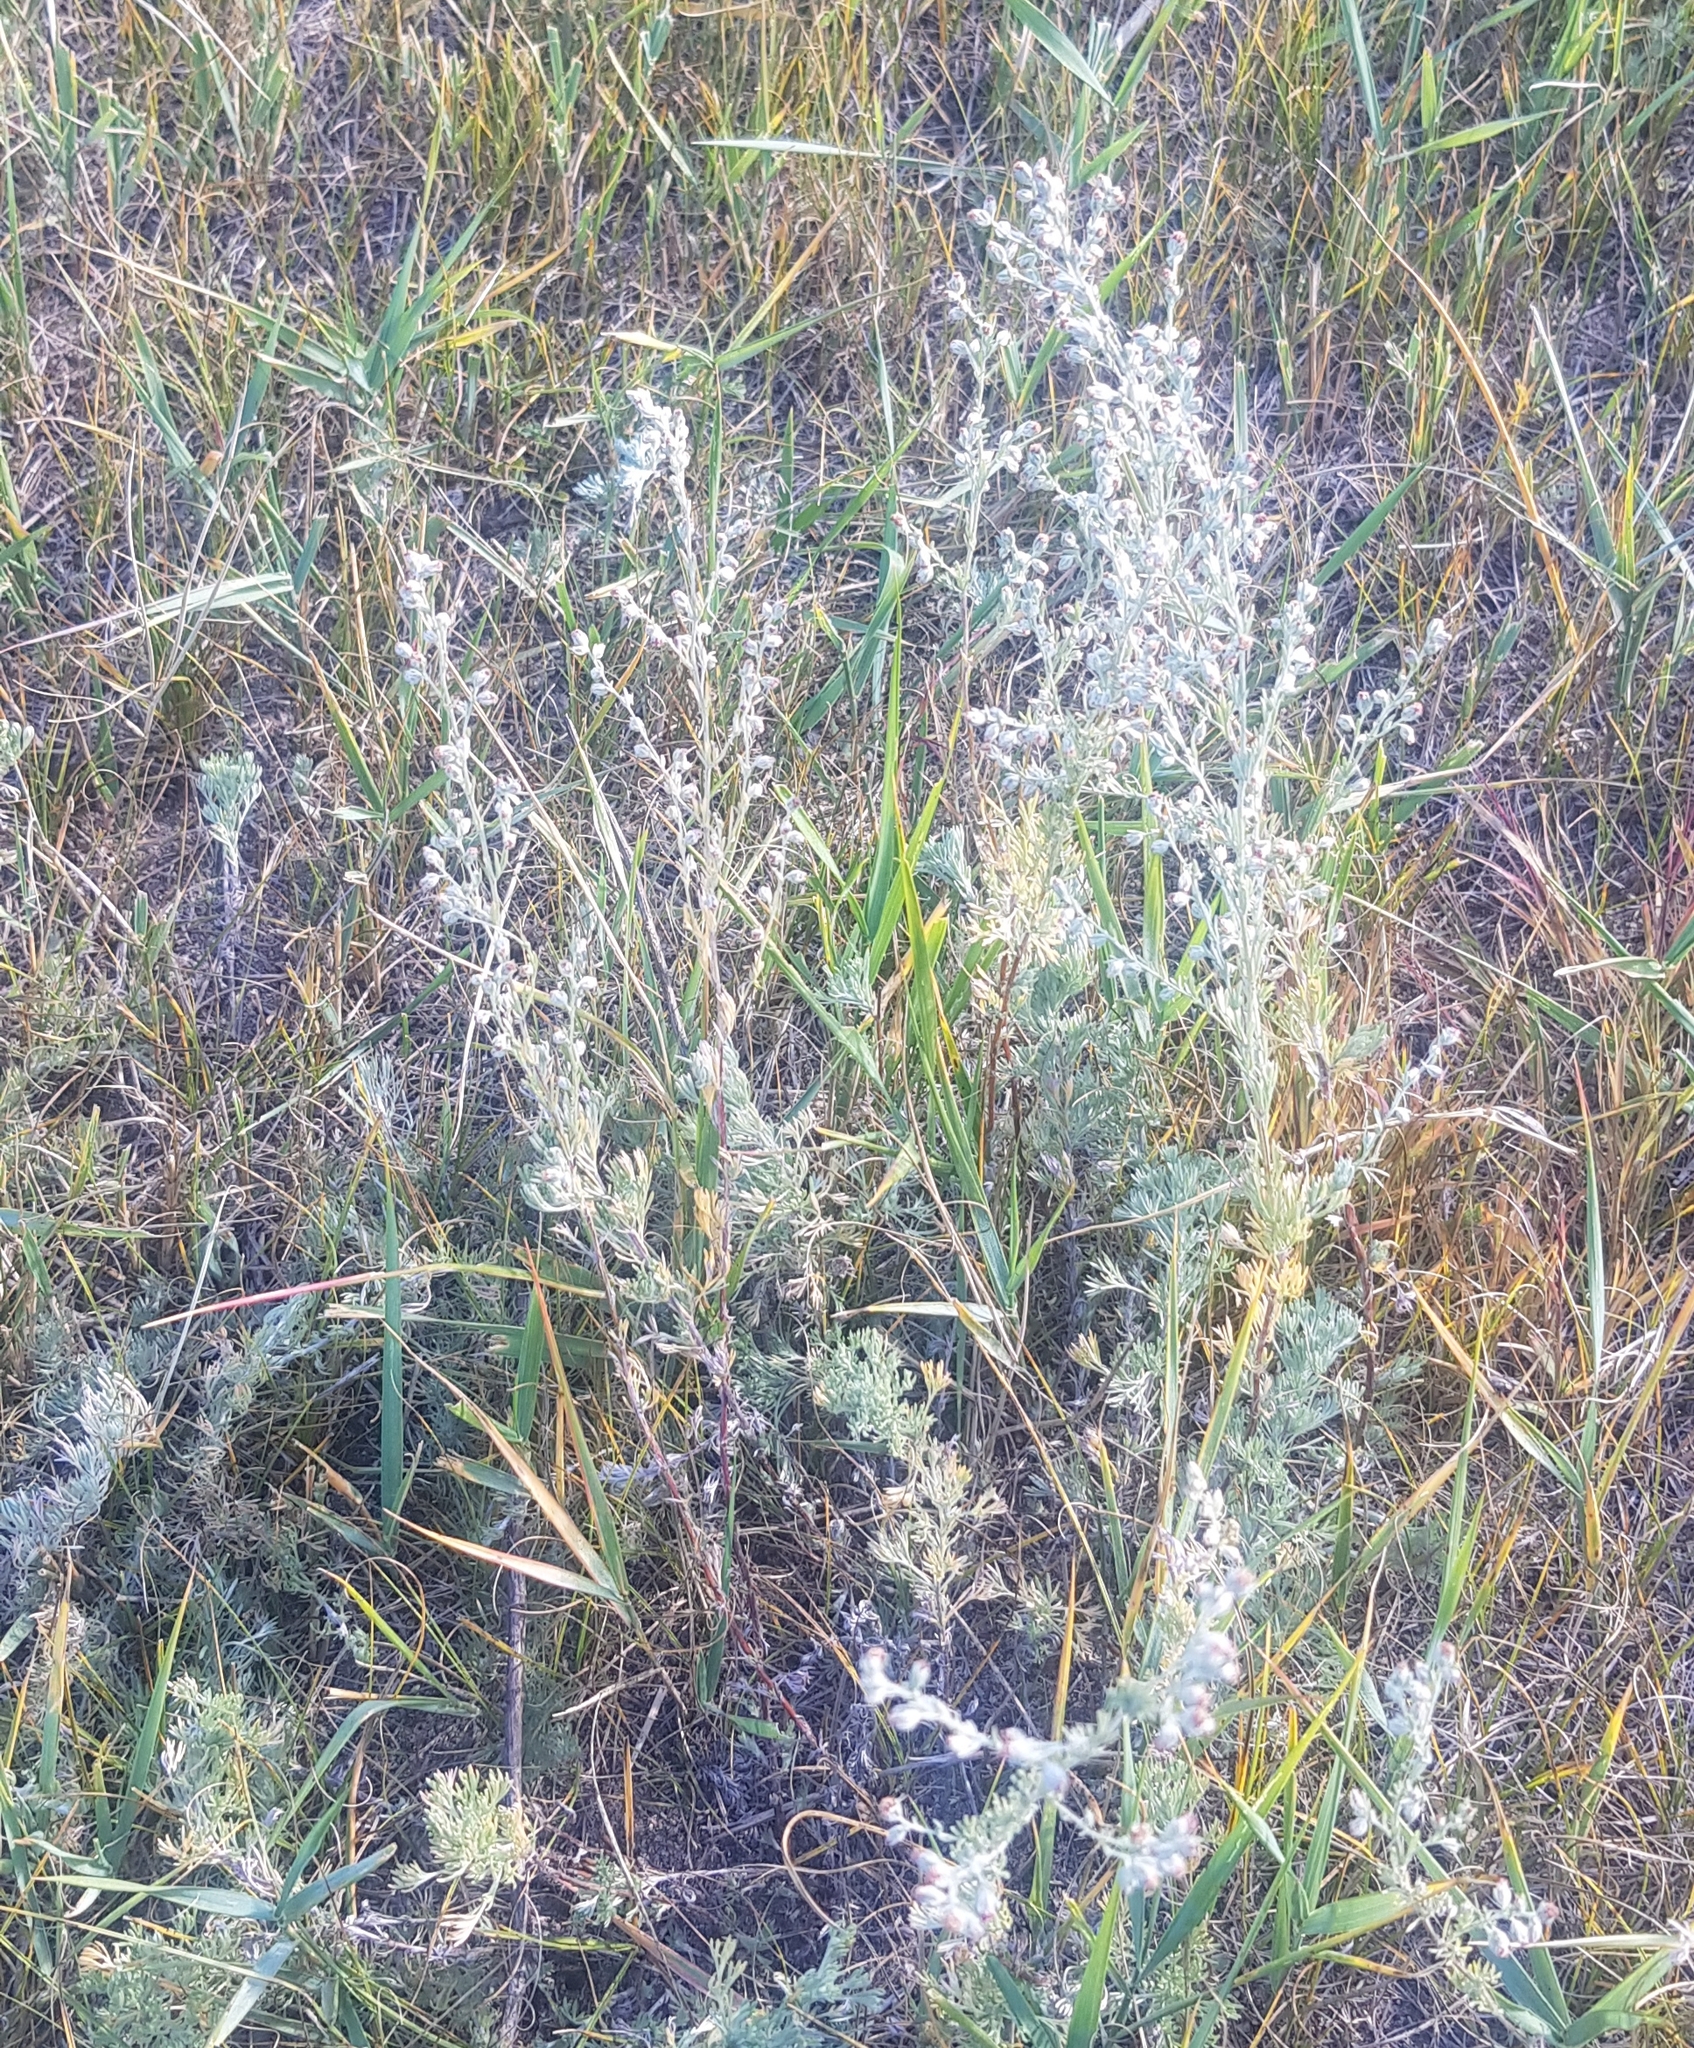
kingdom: Plantae
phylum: Tracheophyta
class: Magnoliopsida
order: Asterales
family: Asteraceae
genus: Artemisia
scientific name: Artemisia frigida
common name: Prairie sagewort
